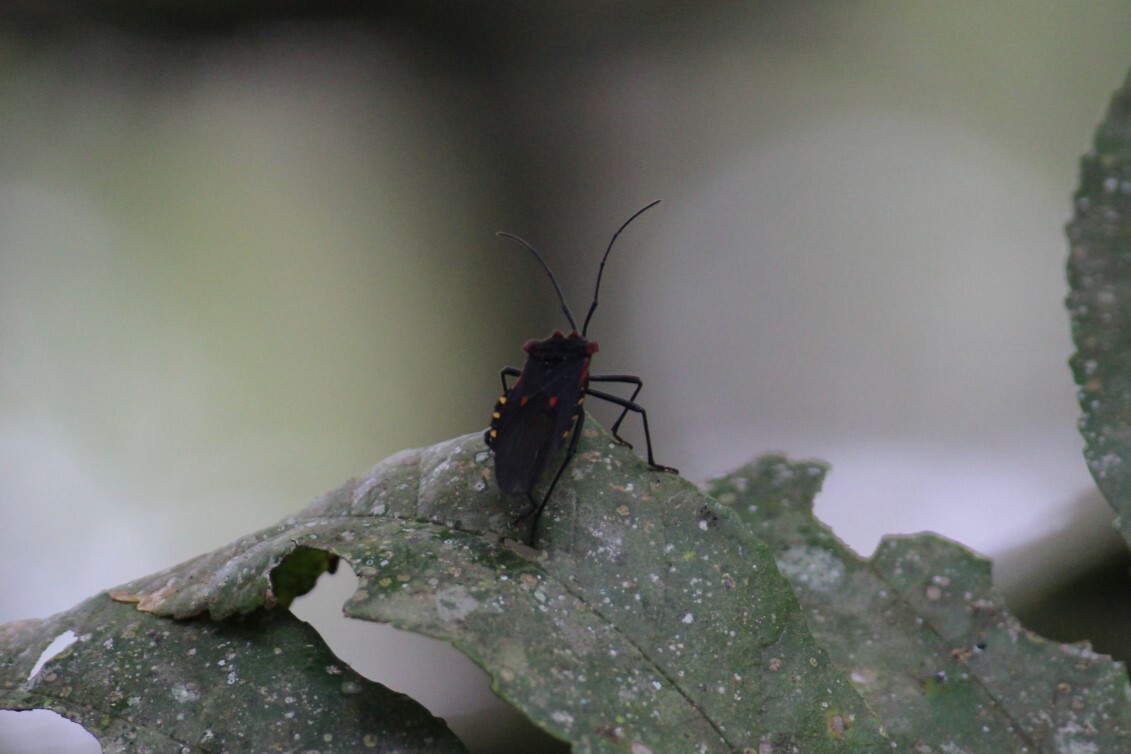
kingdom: Animalia
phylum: Arthropoda
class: Insecta
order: Hemiptera
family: Coreidae
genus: Sephina
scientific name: Sephina pustulata
